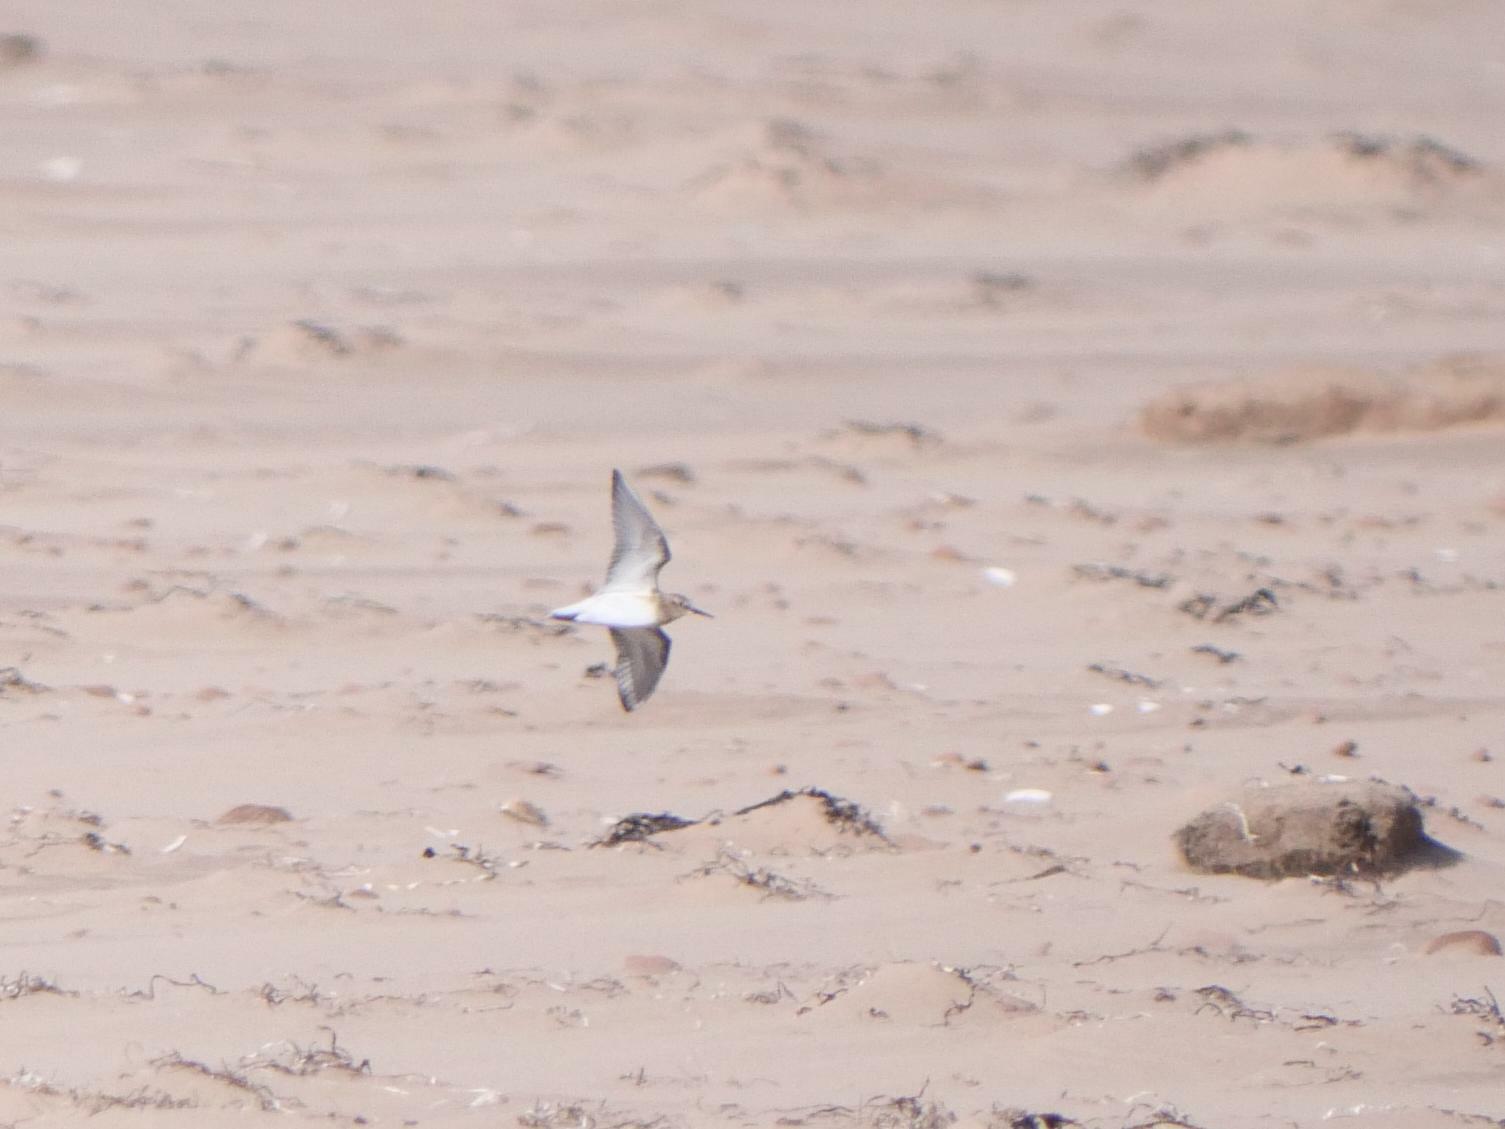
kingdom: Animalia
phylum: Chordata
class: Aves
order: Charadriiformes
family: Scolopacidae
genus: Calidris
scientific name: Calidris bairdii
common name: Baird's sandpiper
